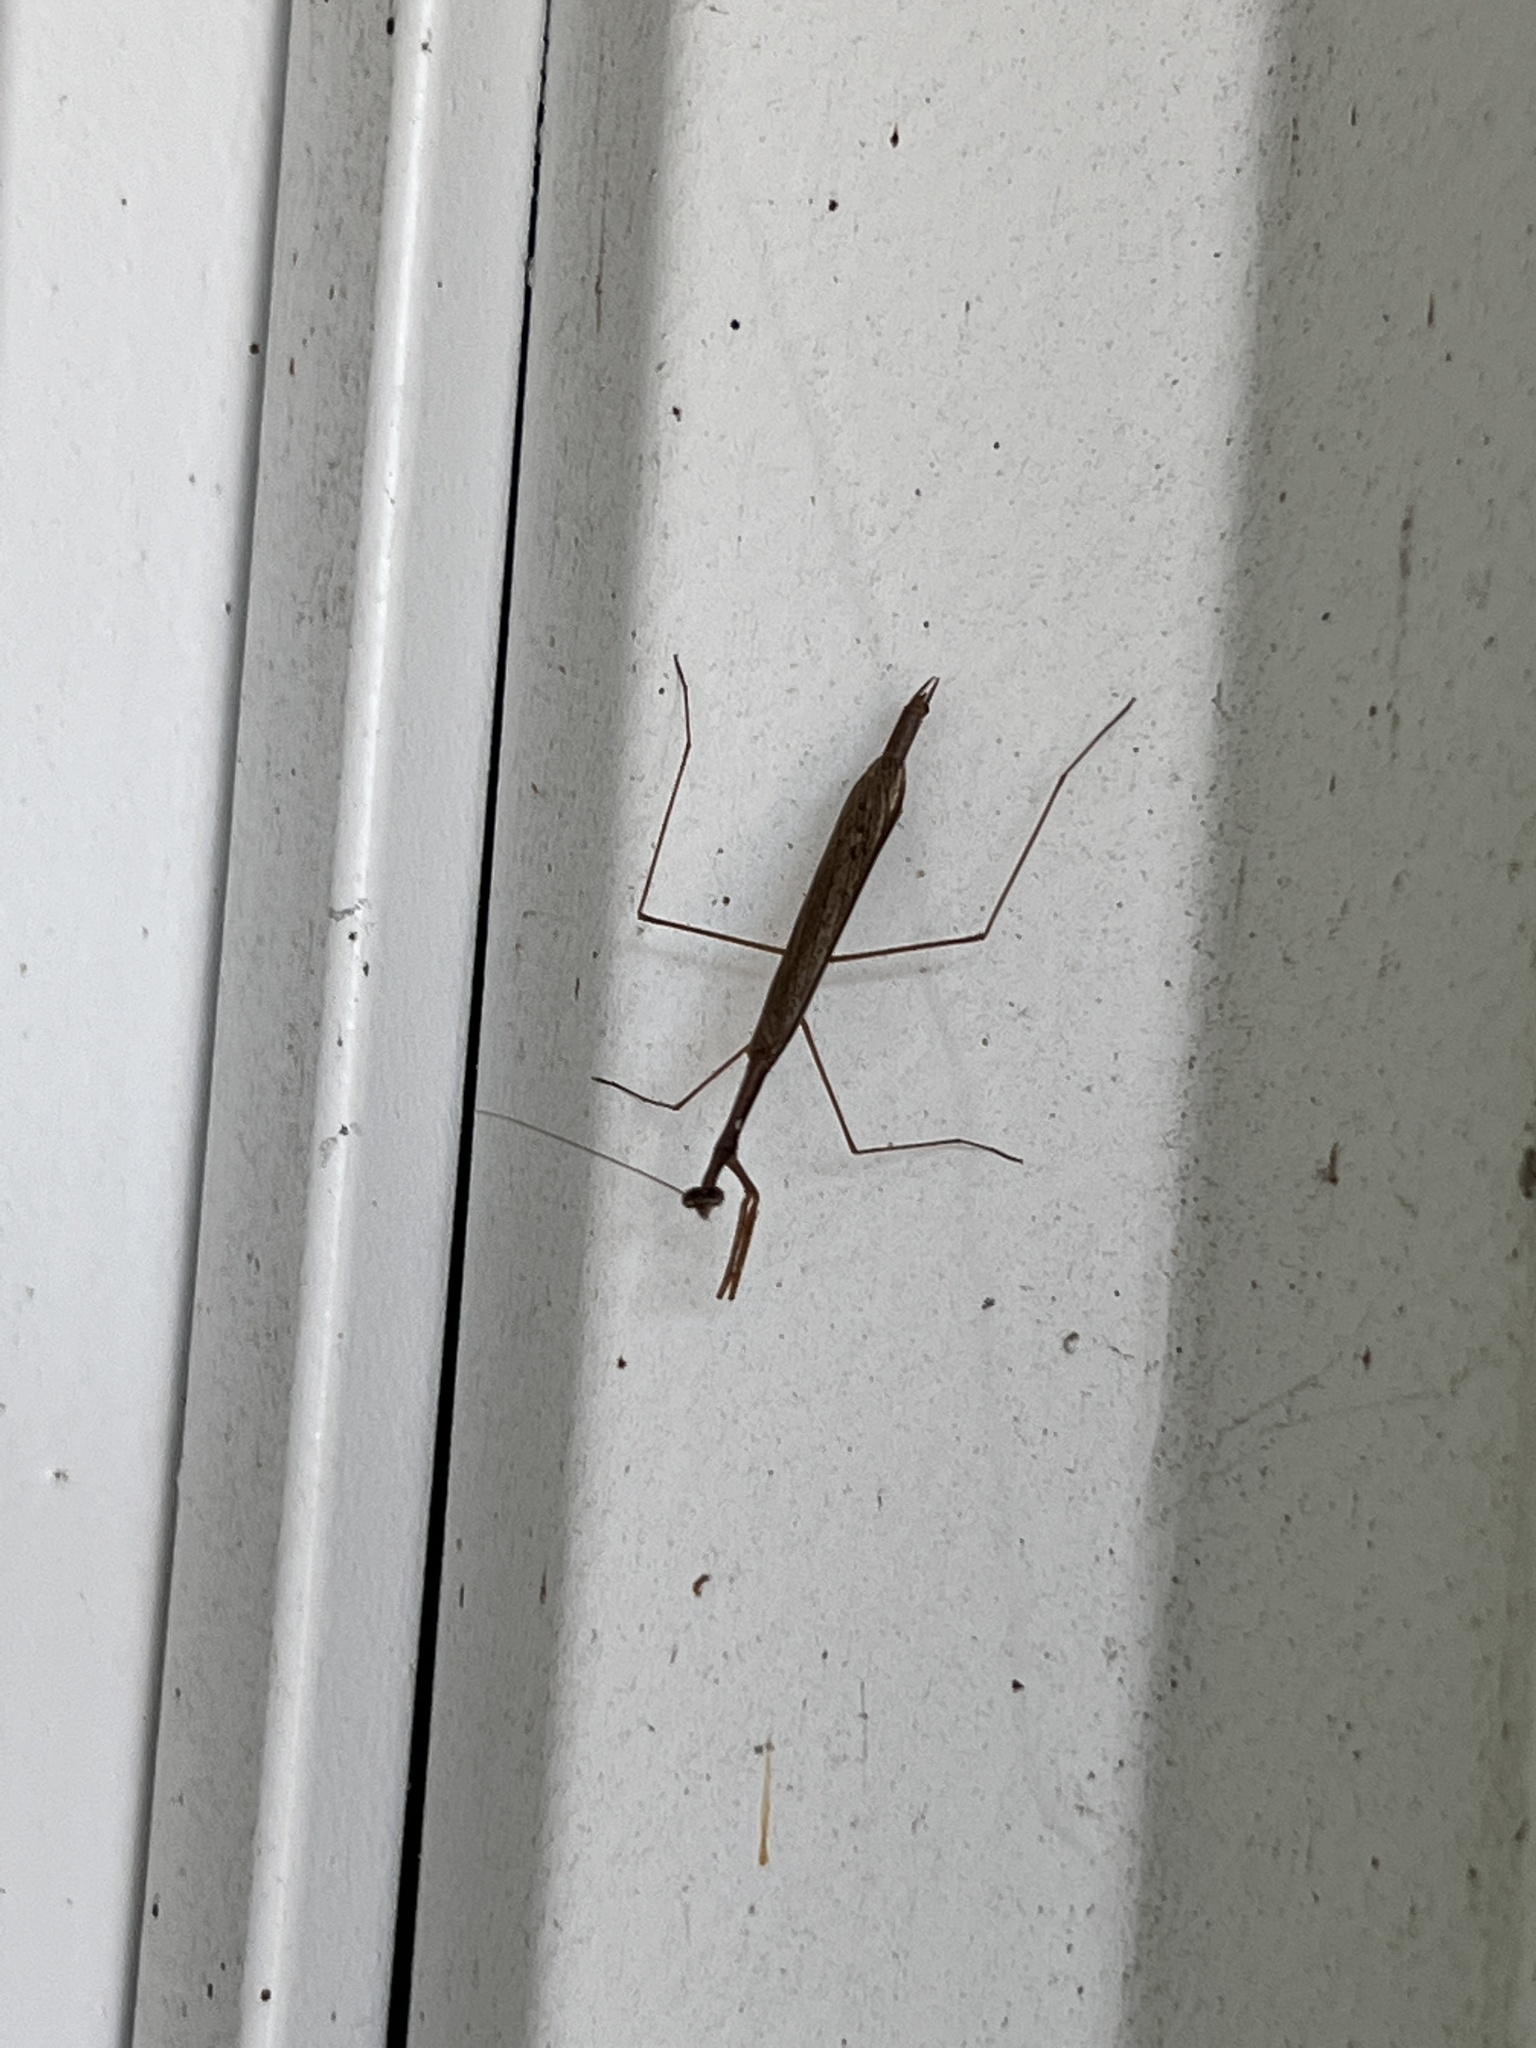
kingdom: Animalia
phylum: Arthropoda
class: Insecta
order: Mantodea
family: Thespidae
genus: Bistanta
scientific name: Bistanta campestris
